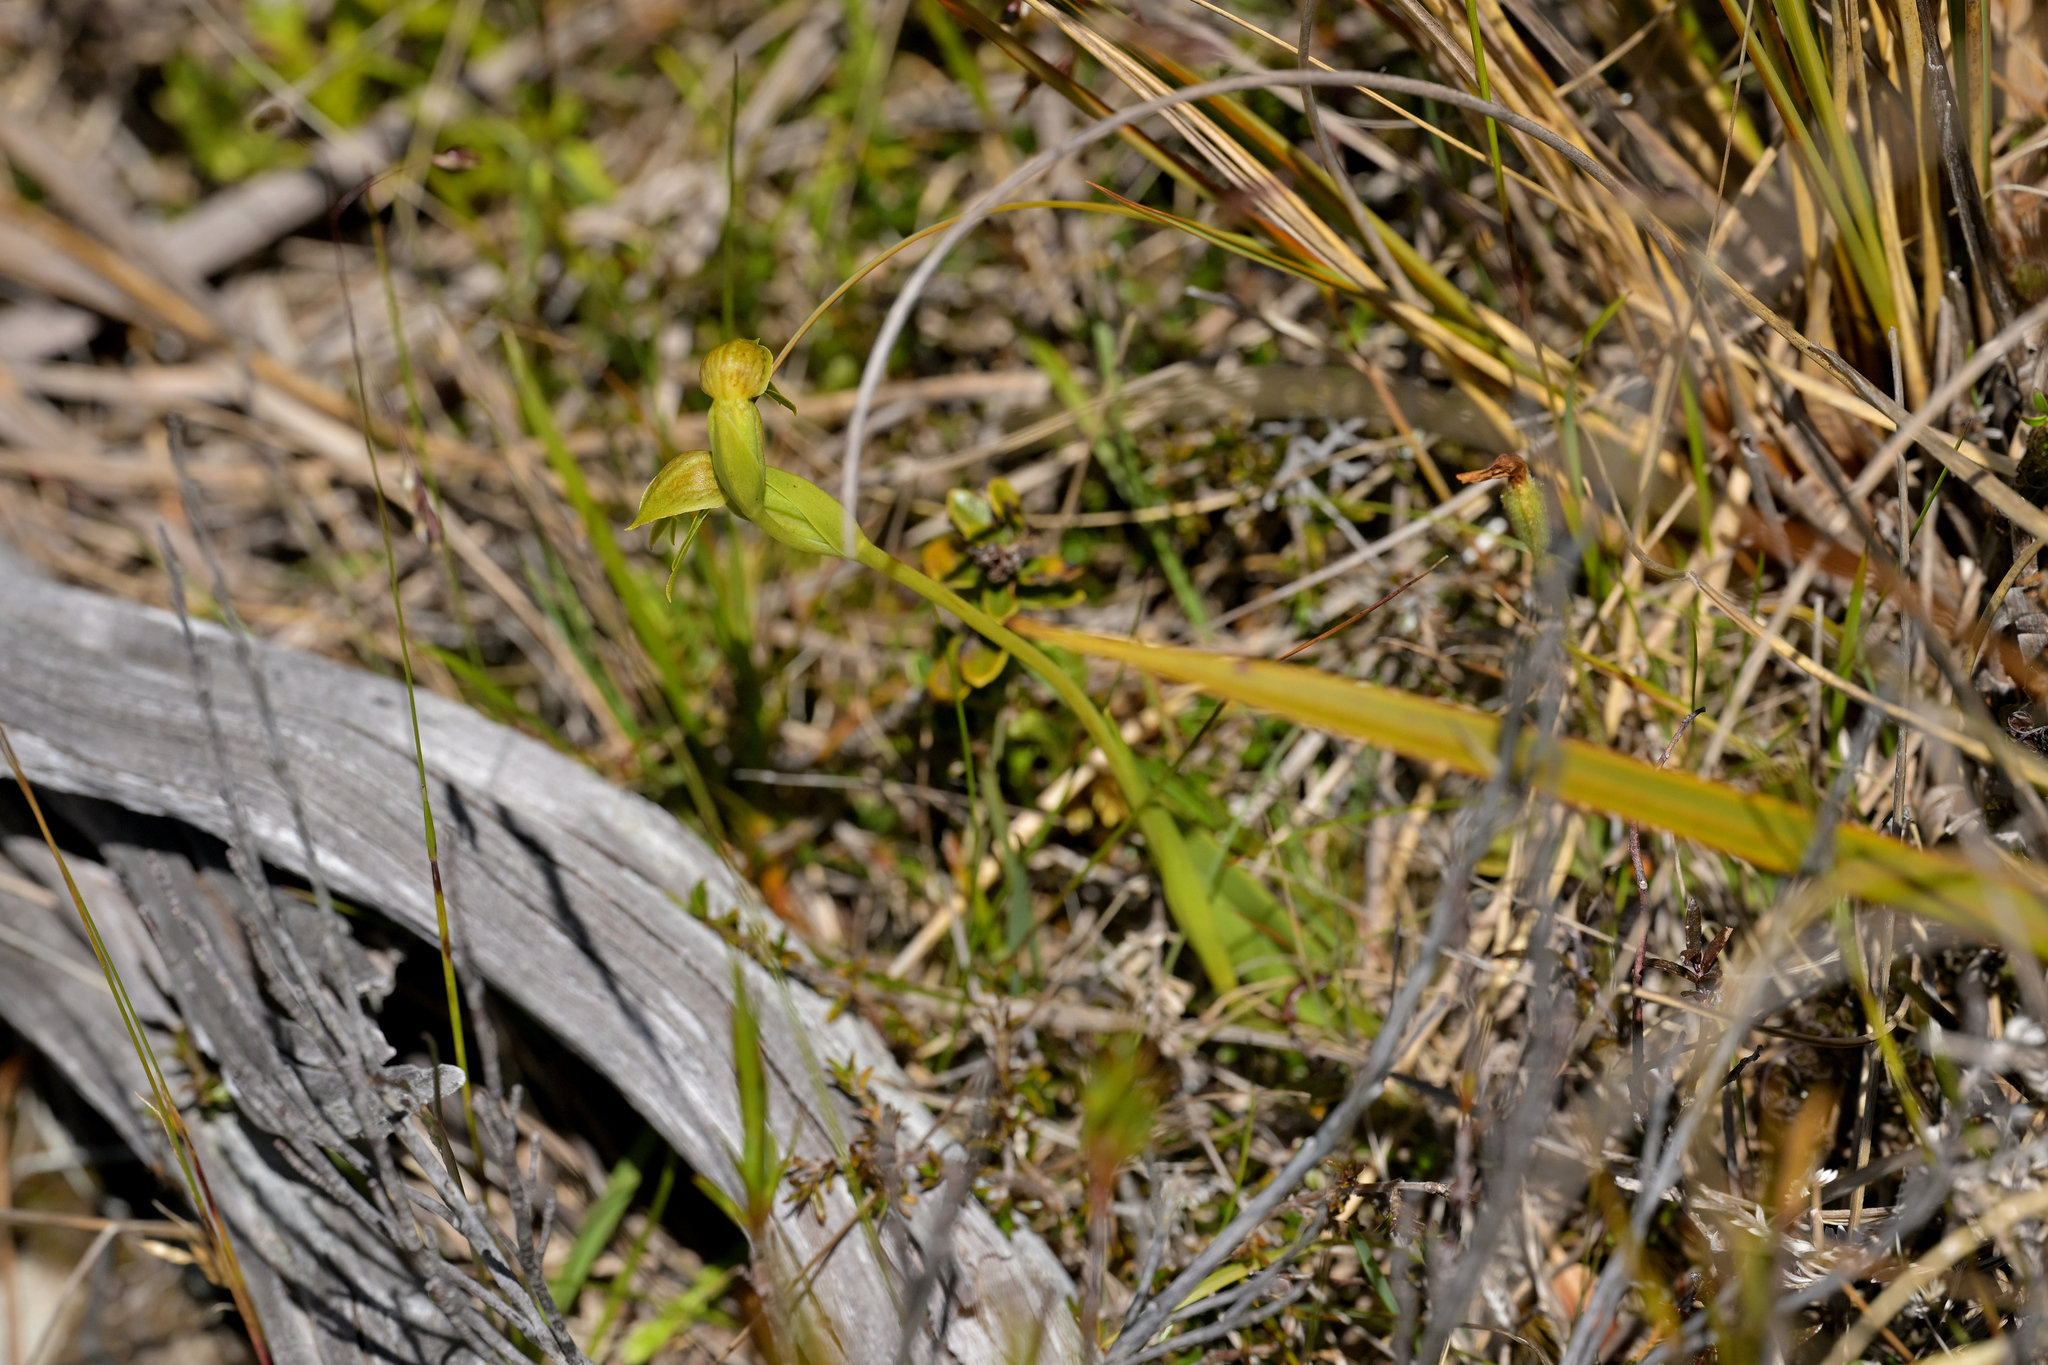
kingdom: Plantae
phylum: Tracheophyta
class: Liliopsida
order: Asparagales
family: Orchidaceae
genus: Waireia
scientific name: Waireia stenopetala
